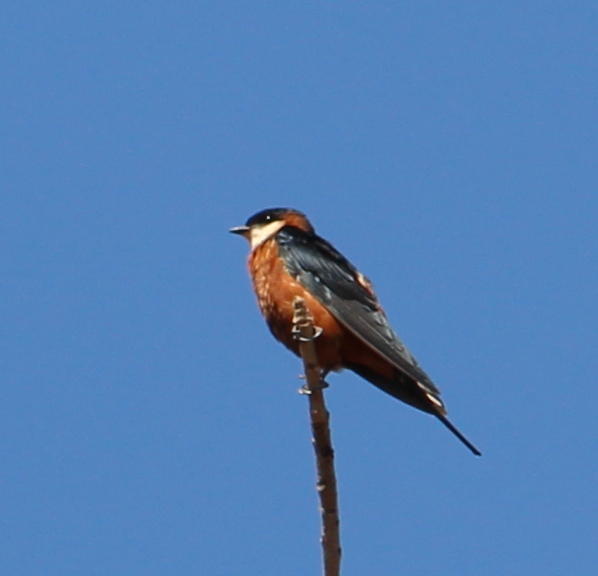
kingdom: Animalia
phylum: Chordata
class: Aves
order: Passeriformes
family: Hirundinidae
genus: Cecropis
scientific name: Cecropis senegalensis
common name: Mosque swallow
